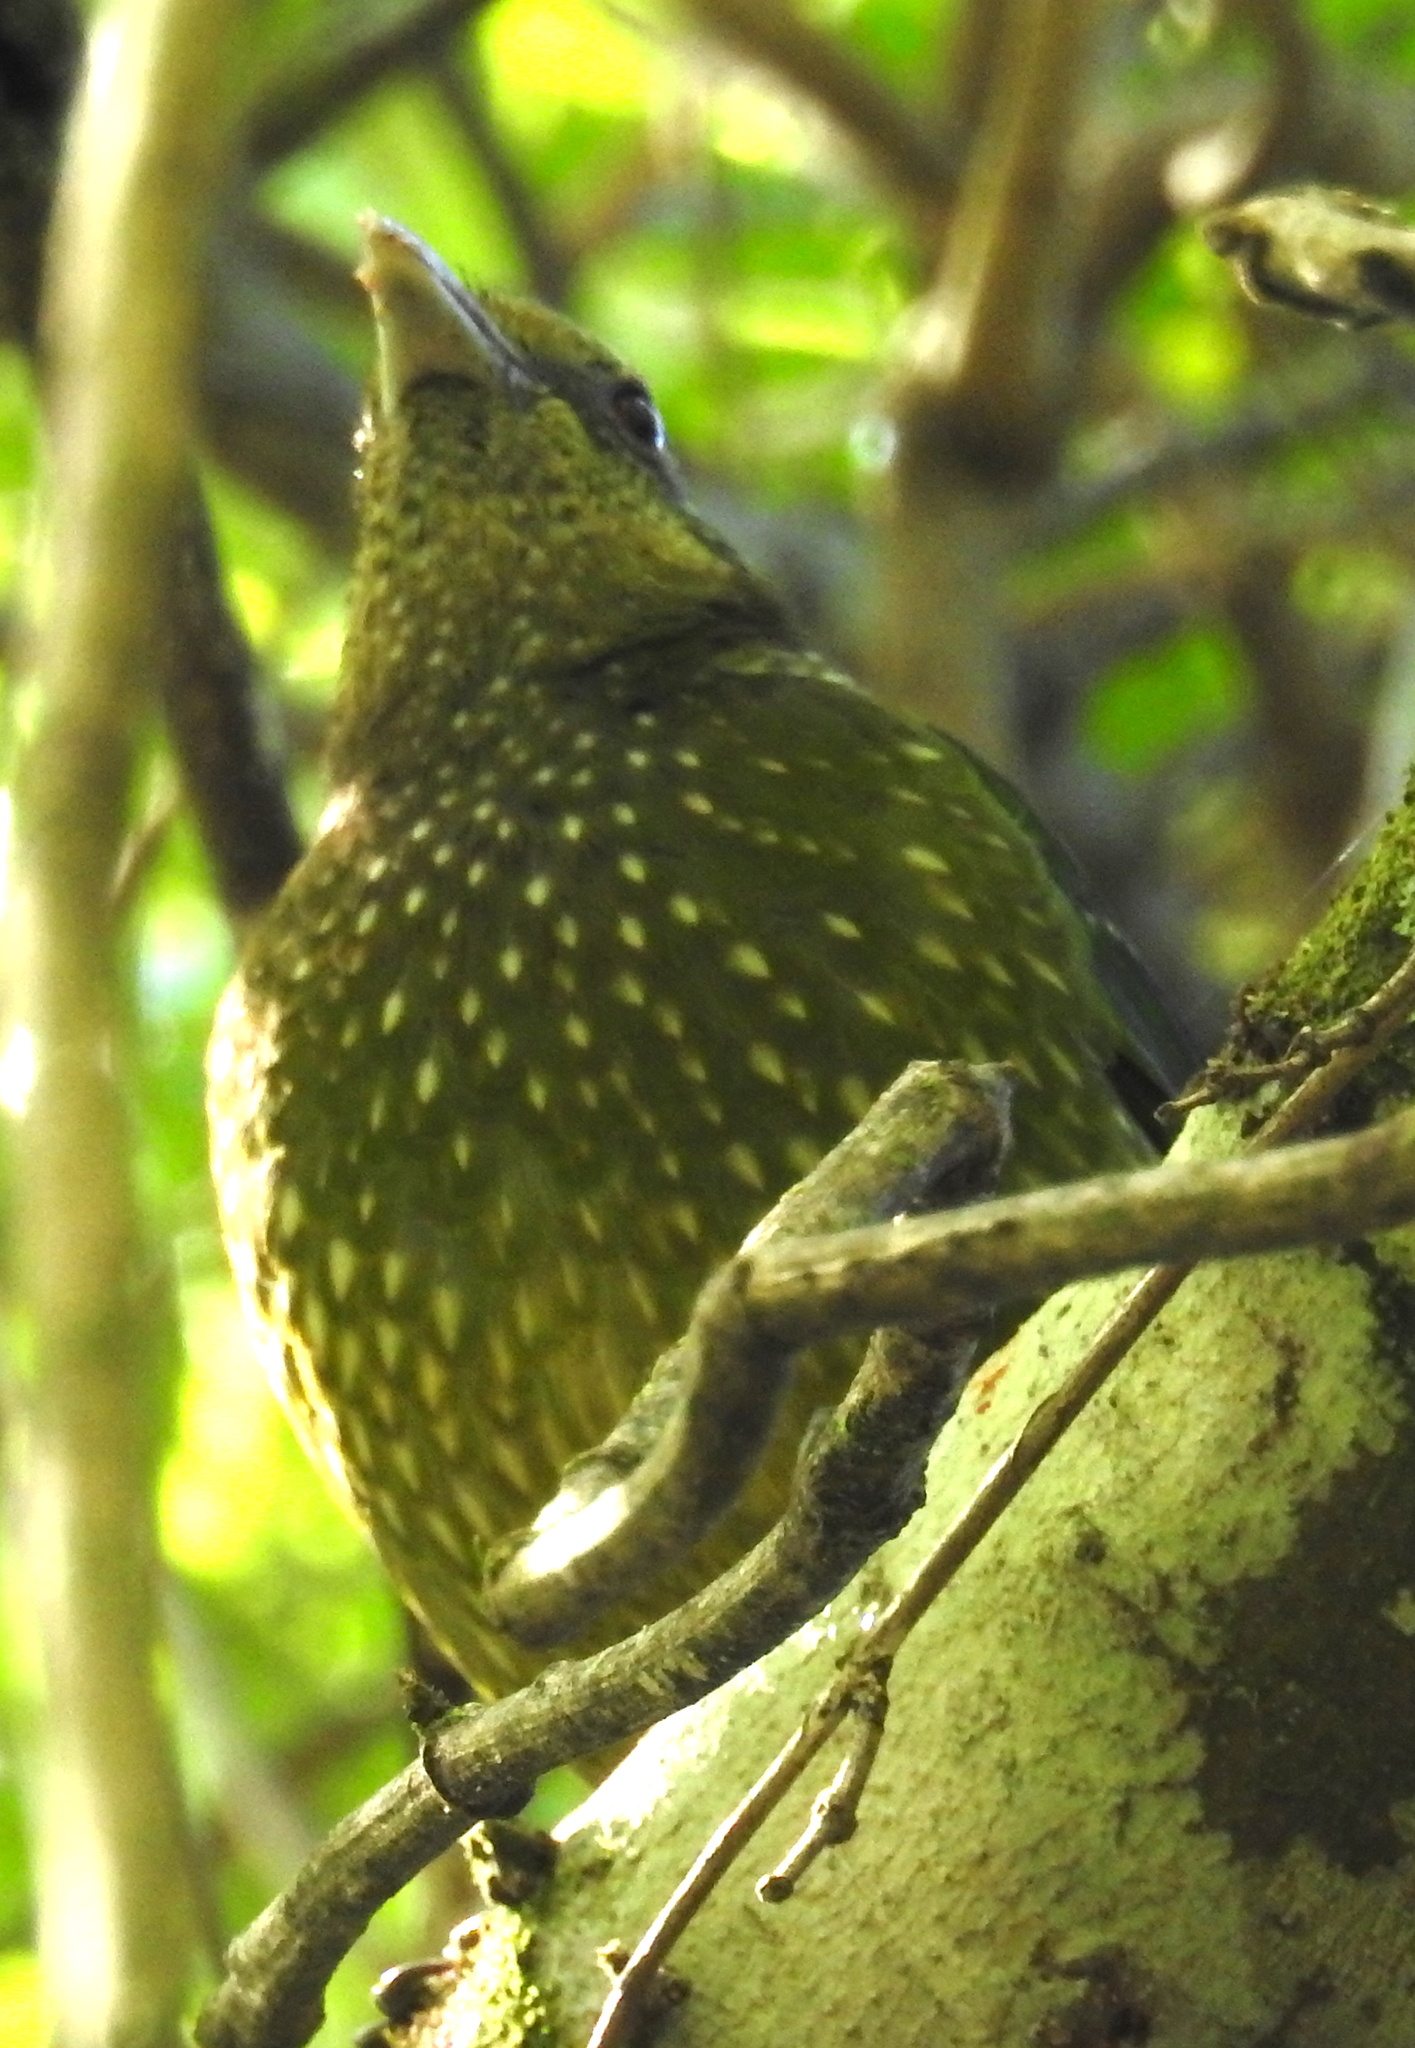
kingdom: Animalia
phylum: Chordata
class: Aves
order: Passeriformes
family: Ptilonorhynchidae
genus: Ailuroedus
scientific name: Ailuroedus crassirostris
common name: Green catbird
